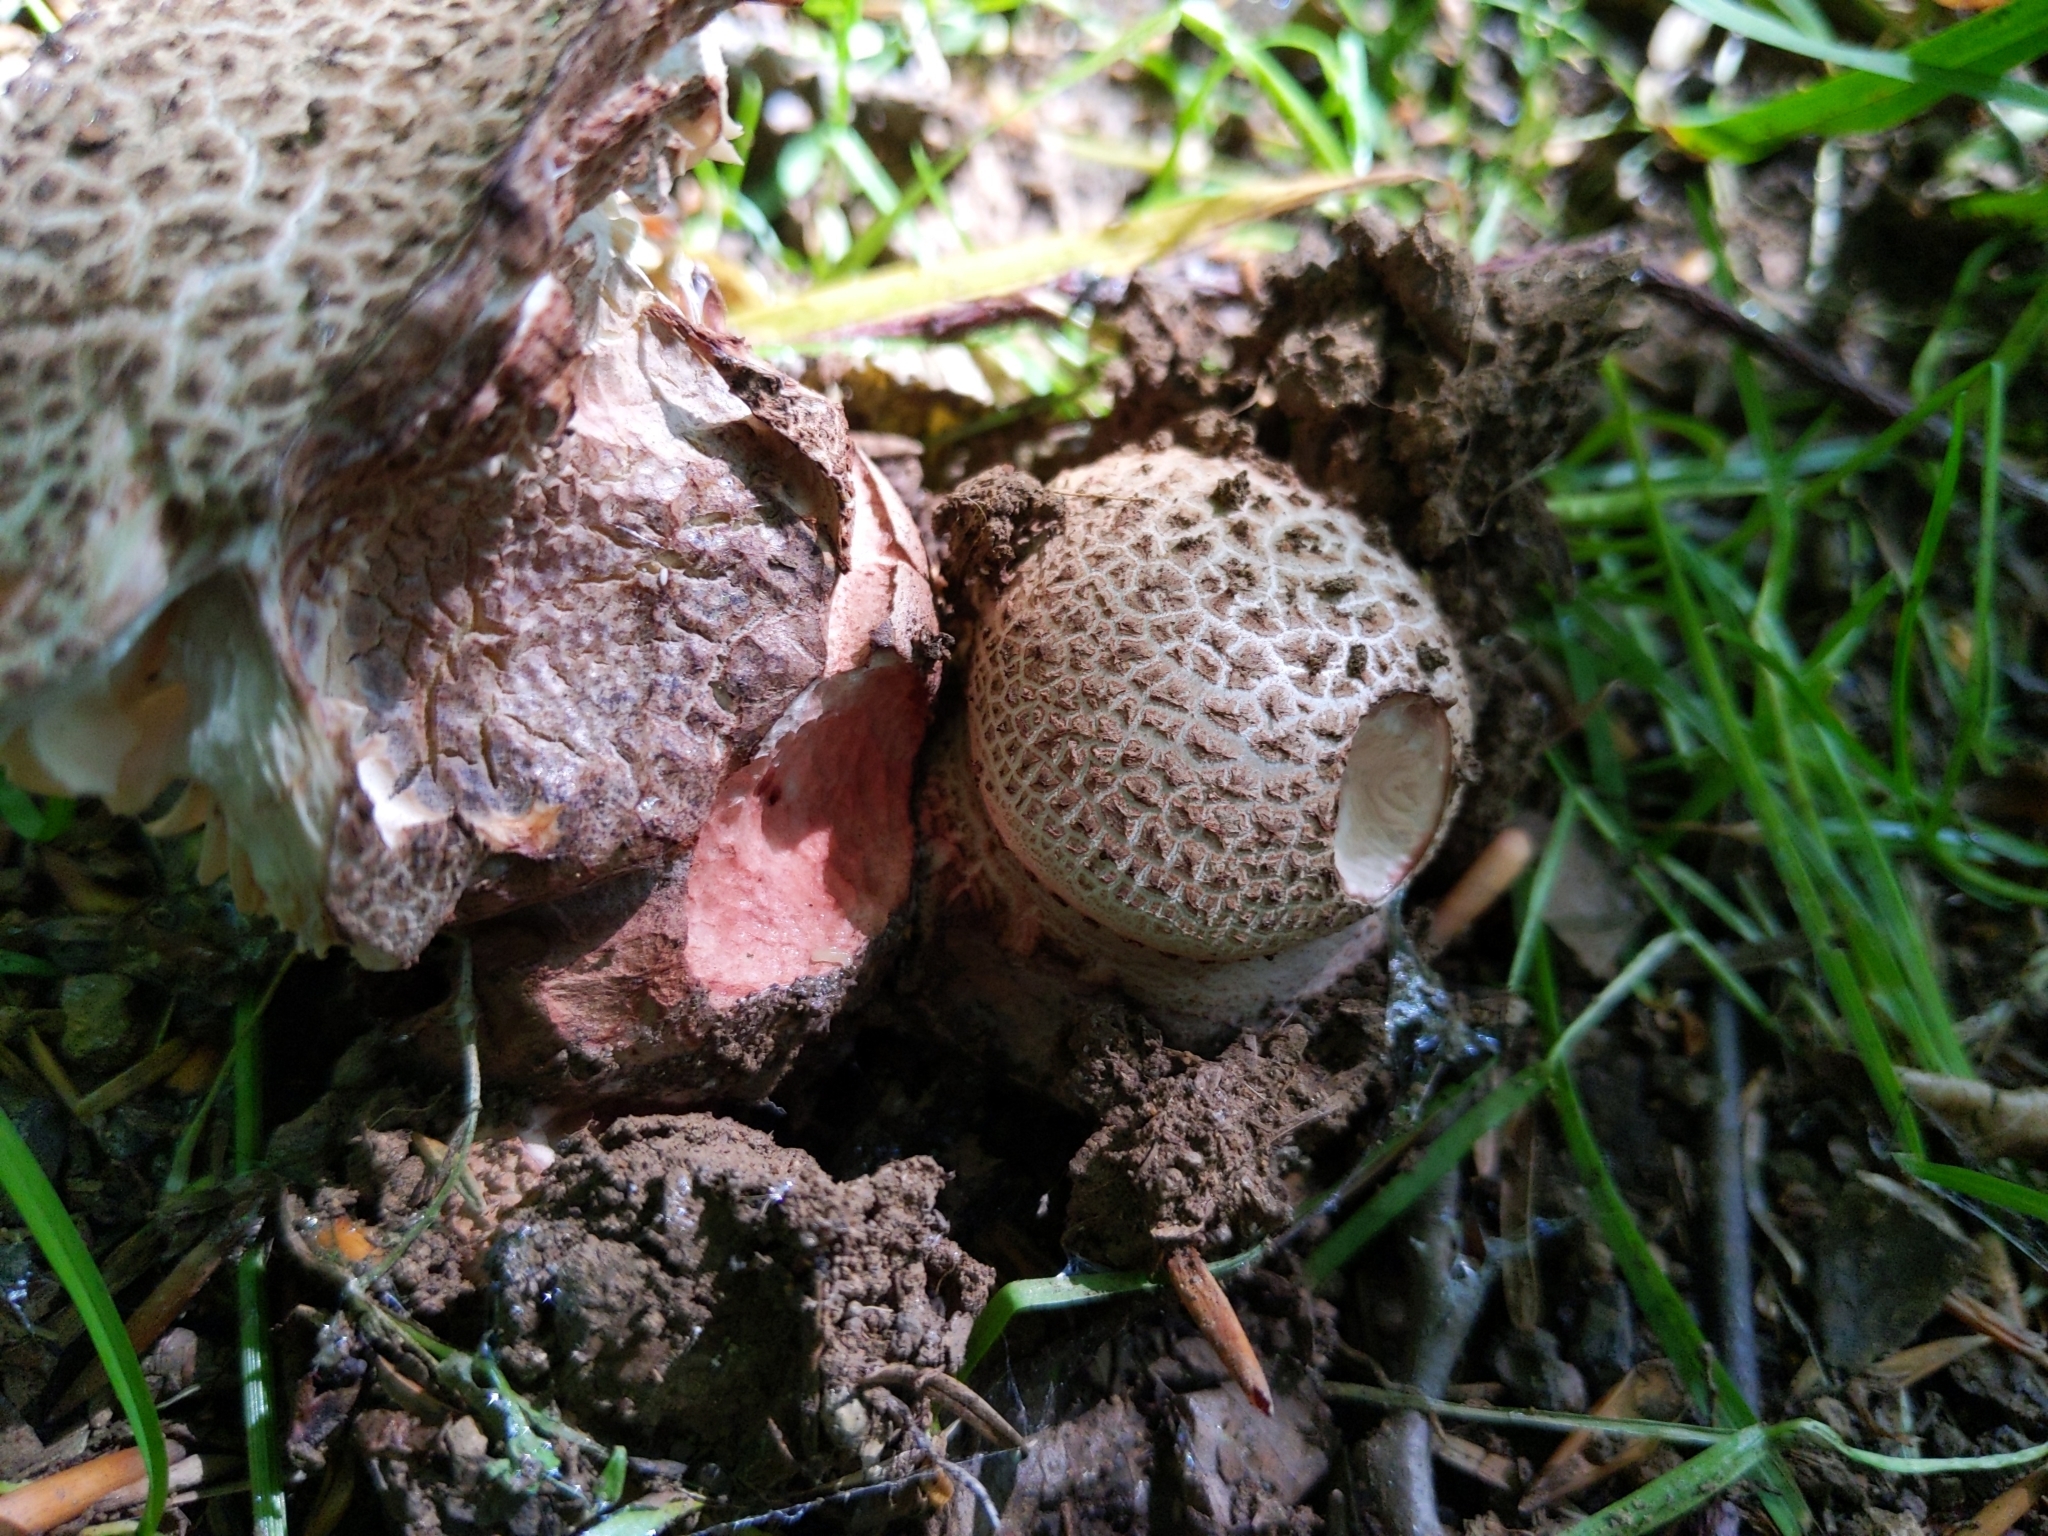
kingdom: Fungi
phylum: Basidiomycota
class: Agaricomycetes
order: Boletales
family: Sclerodermataceae
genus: Scleroderma
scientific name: Scleroderma citrinum
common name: Common earthball
